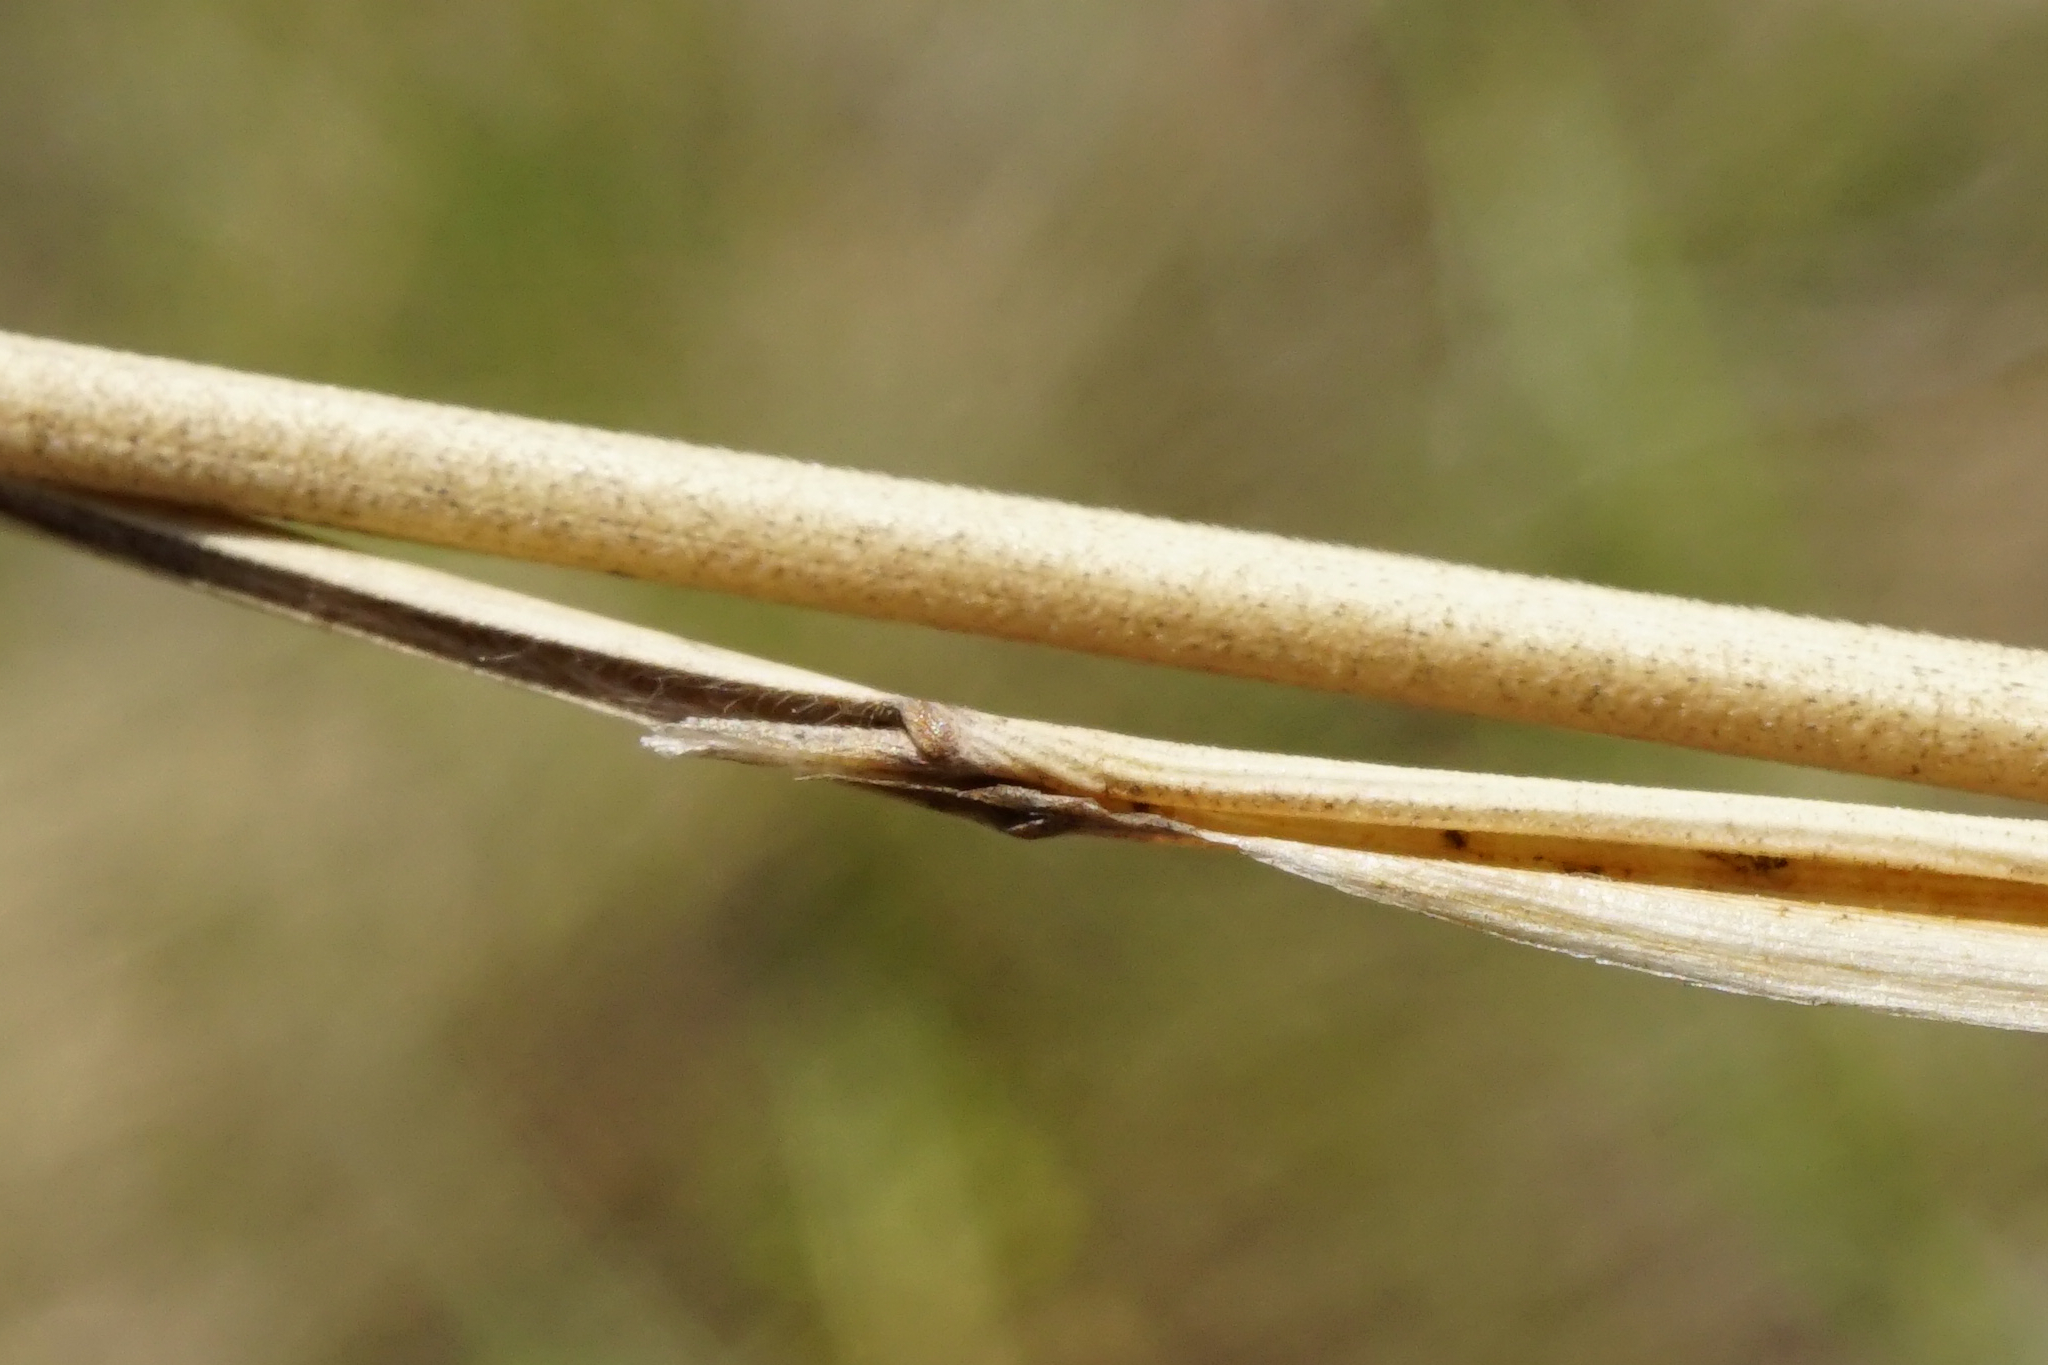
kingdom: Plantae
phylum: Tracheophyta
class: Liliopsida
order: Poales
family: Poaceae
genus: Stipa
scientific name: Stipa capillata
